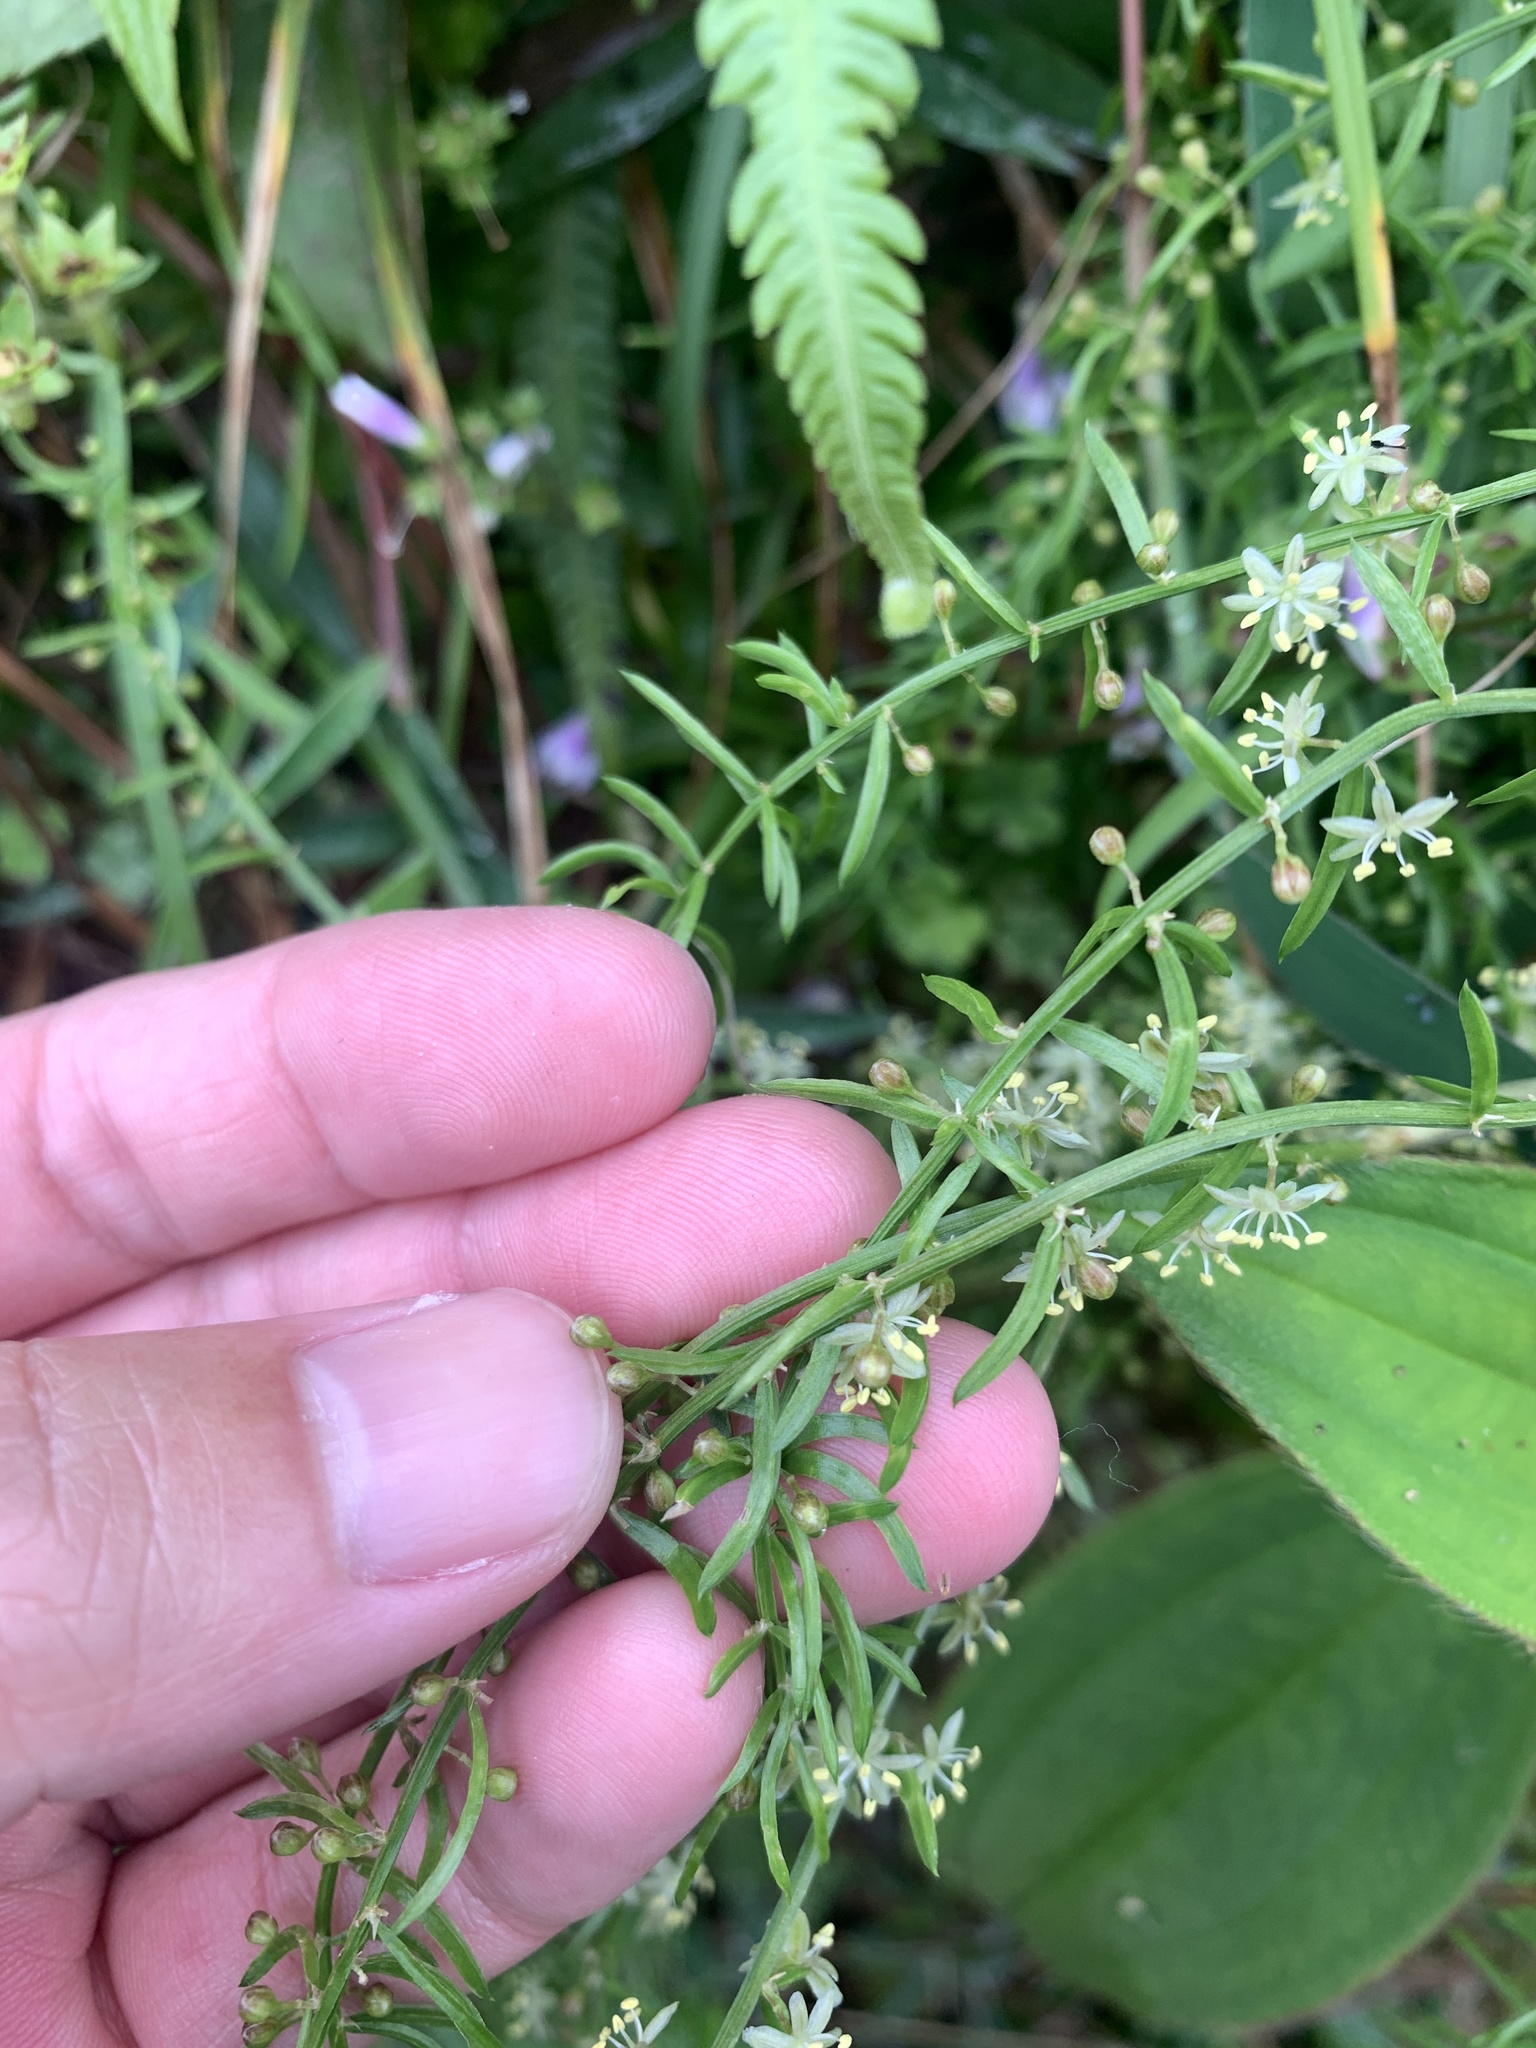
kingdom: Plantae
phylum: Tracheophyta
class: Liliopsida
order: Asparagales
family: Asparagaceae
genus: Asparagus
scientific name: Asparagus cochinchinensis
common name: Chinese asparagus
